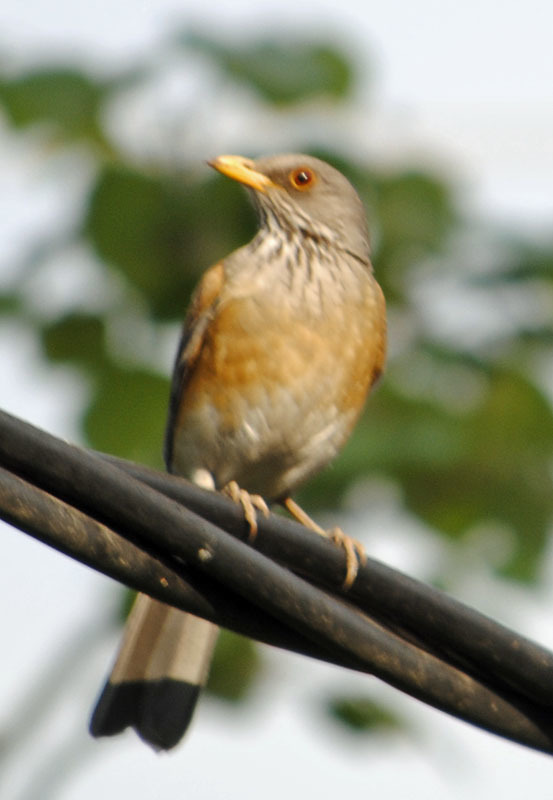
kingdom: Animalia
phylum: Chordata
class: Aves
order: Passeriformes
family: Turdidae
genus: Turdus
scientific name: Turdus rufopalliatus
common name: Rufous-backed robin
